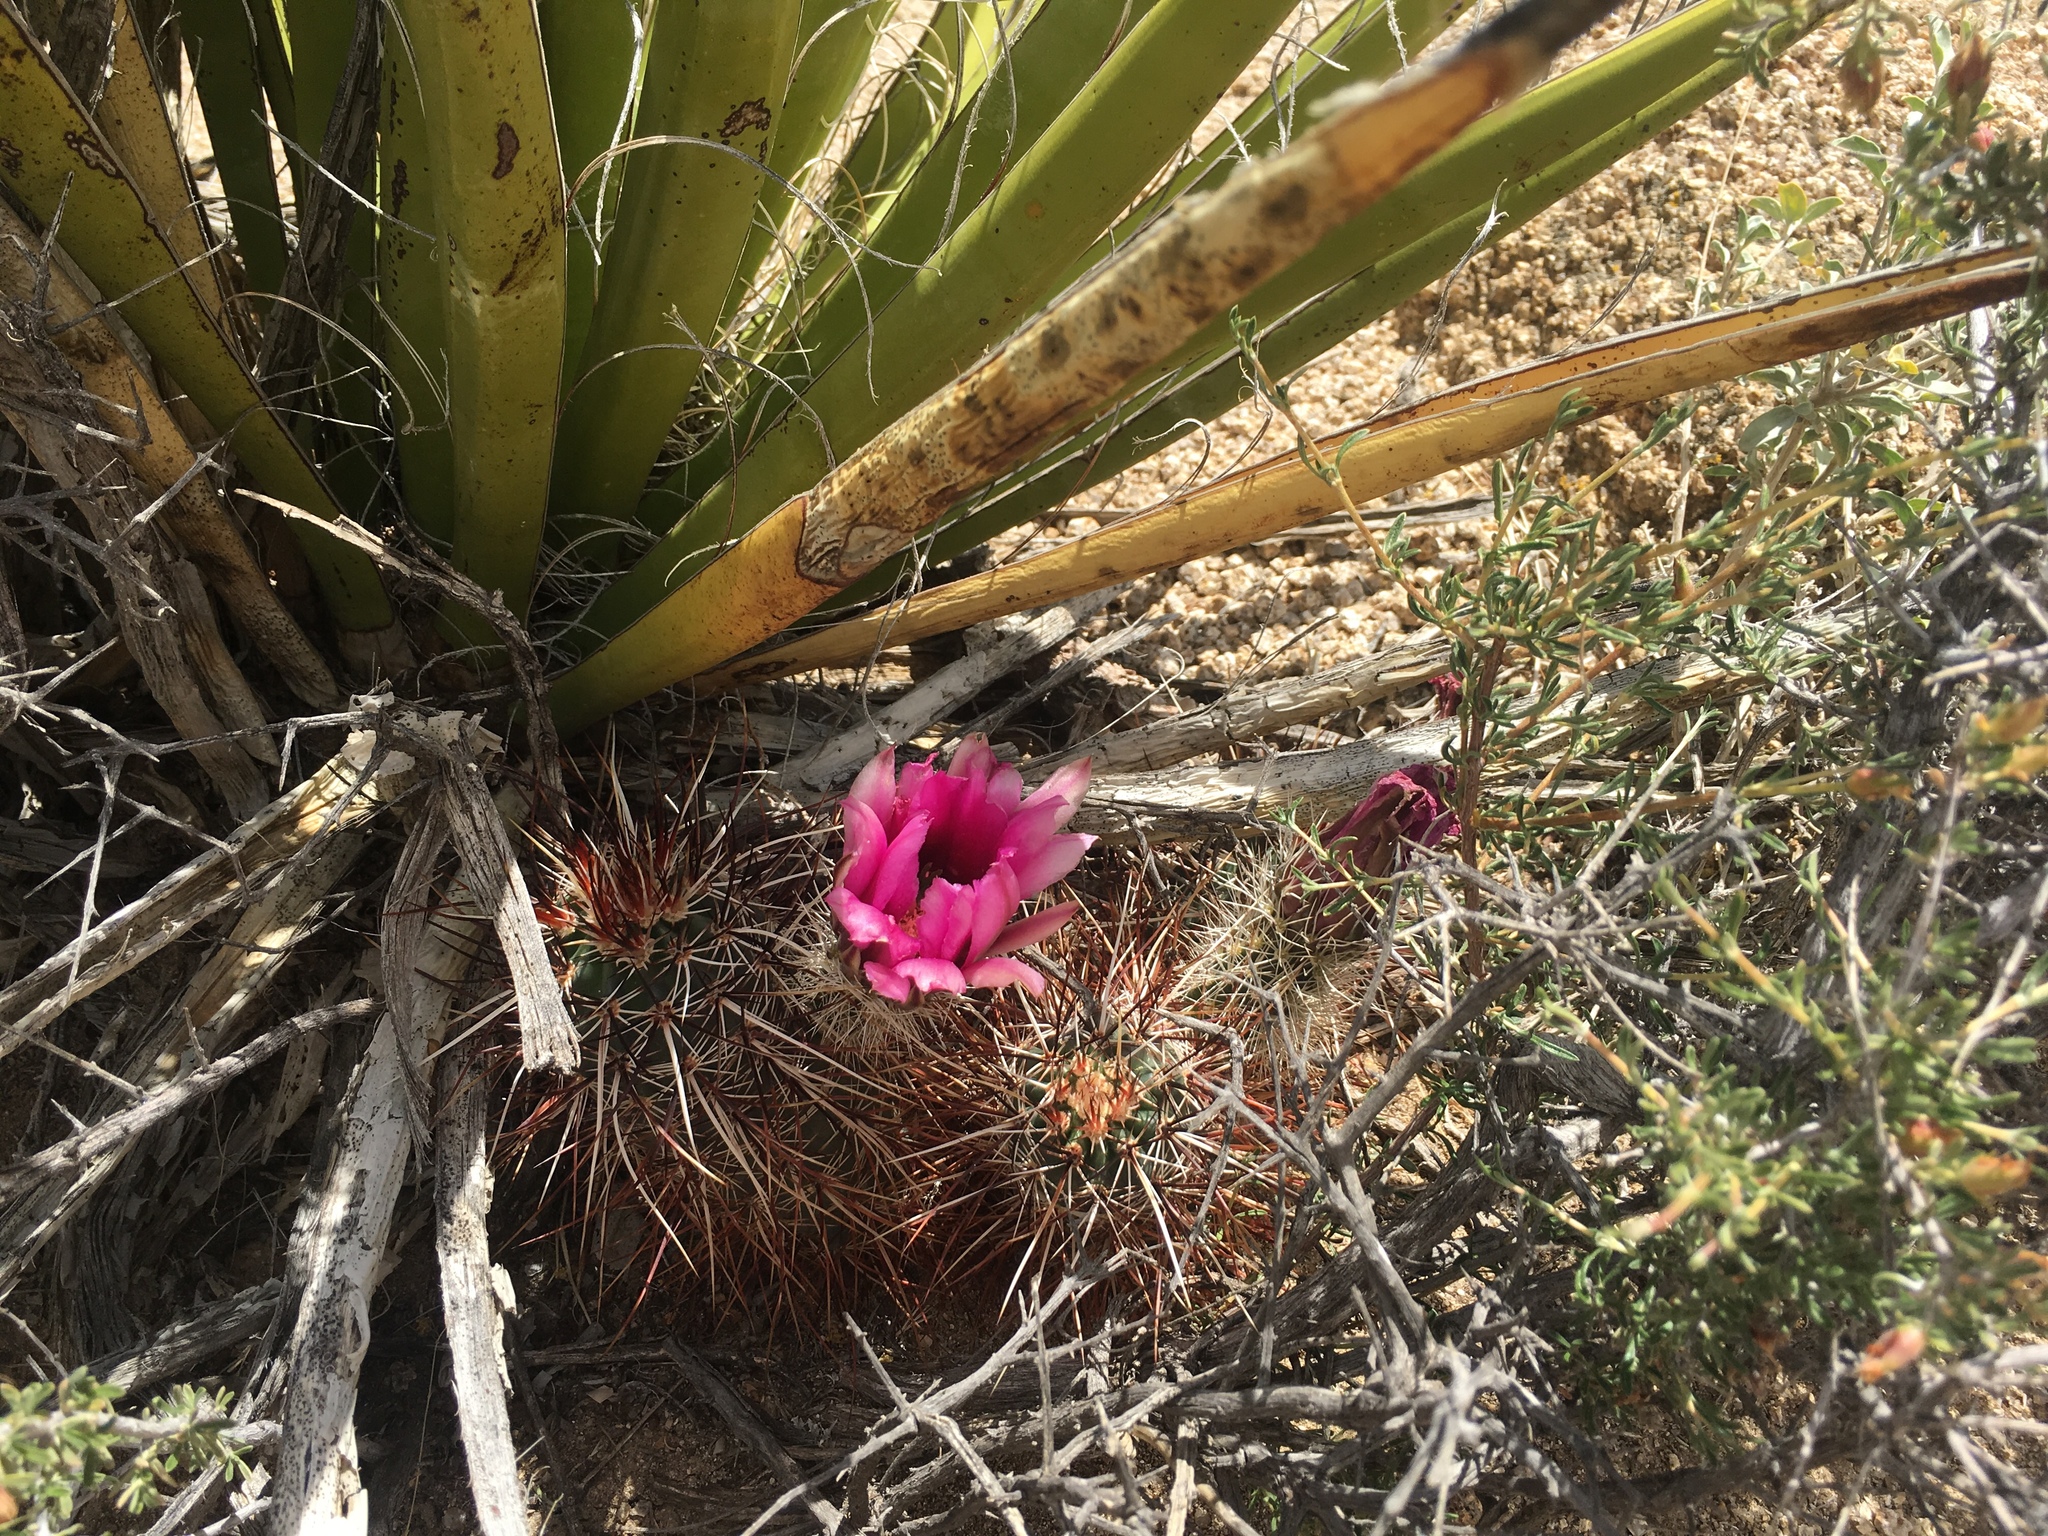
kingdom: Plantae
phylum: Tracheophyta
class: Magnoliopsida
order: Caryophyllales
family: Cactaceae
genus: Echinocereus
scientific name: Echinocereus engelmannii
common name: Engelmann's hedgehog cactus
